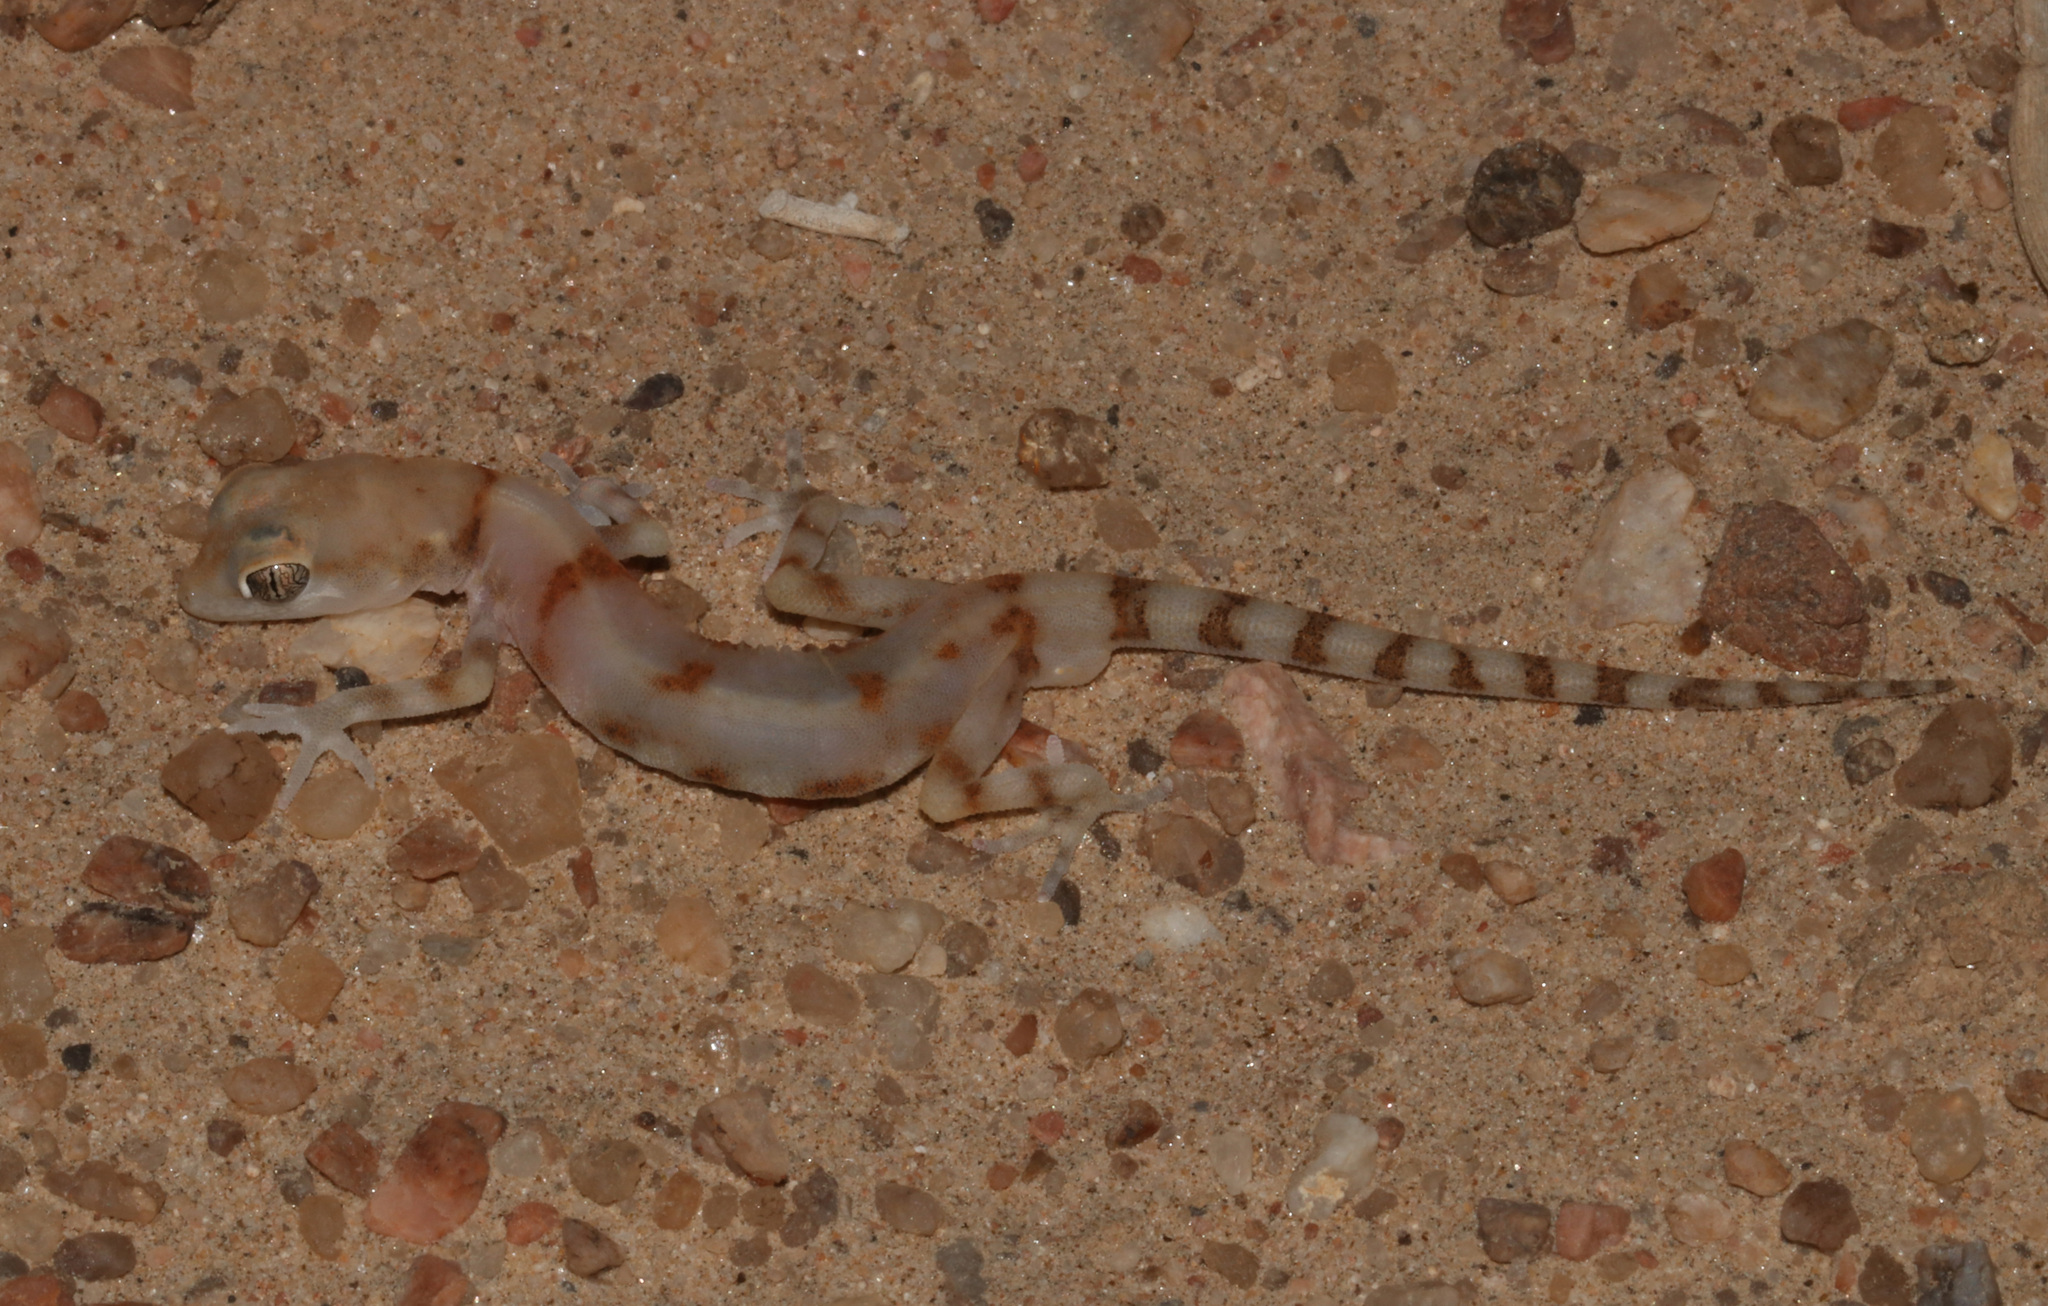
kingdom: Animalia
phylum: Chordata
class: Squamata
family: Gekkonidae
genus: Pachydactylus
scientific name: Pachydactylus kochii
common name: Koch’s gecko
